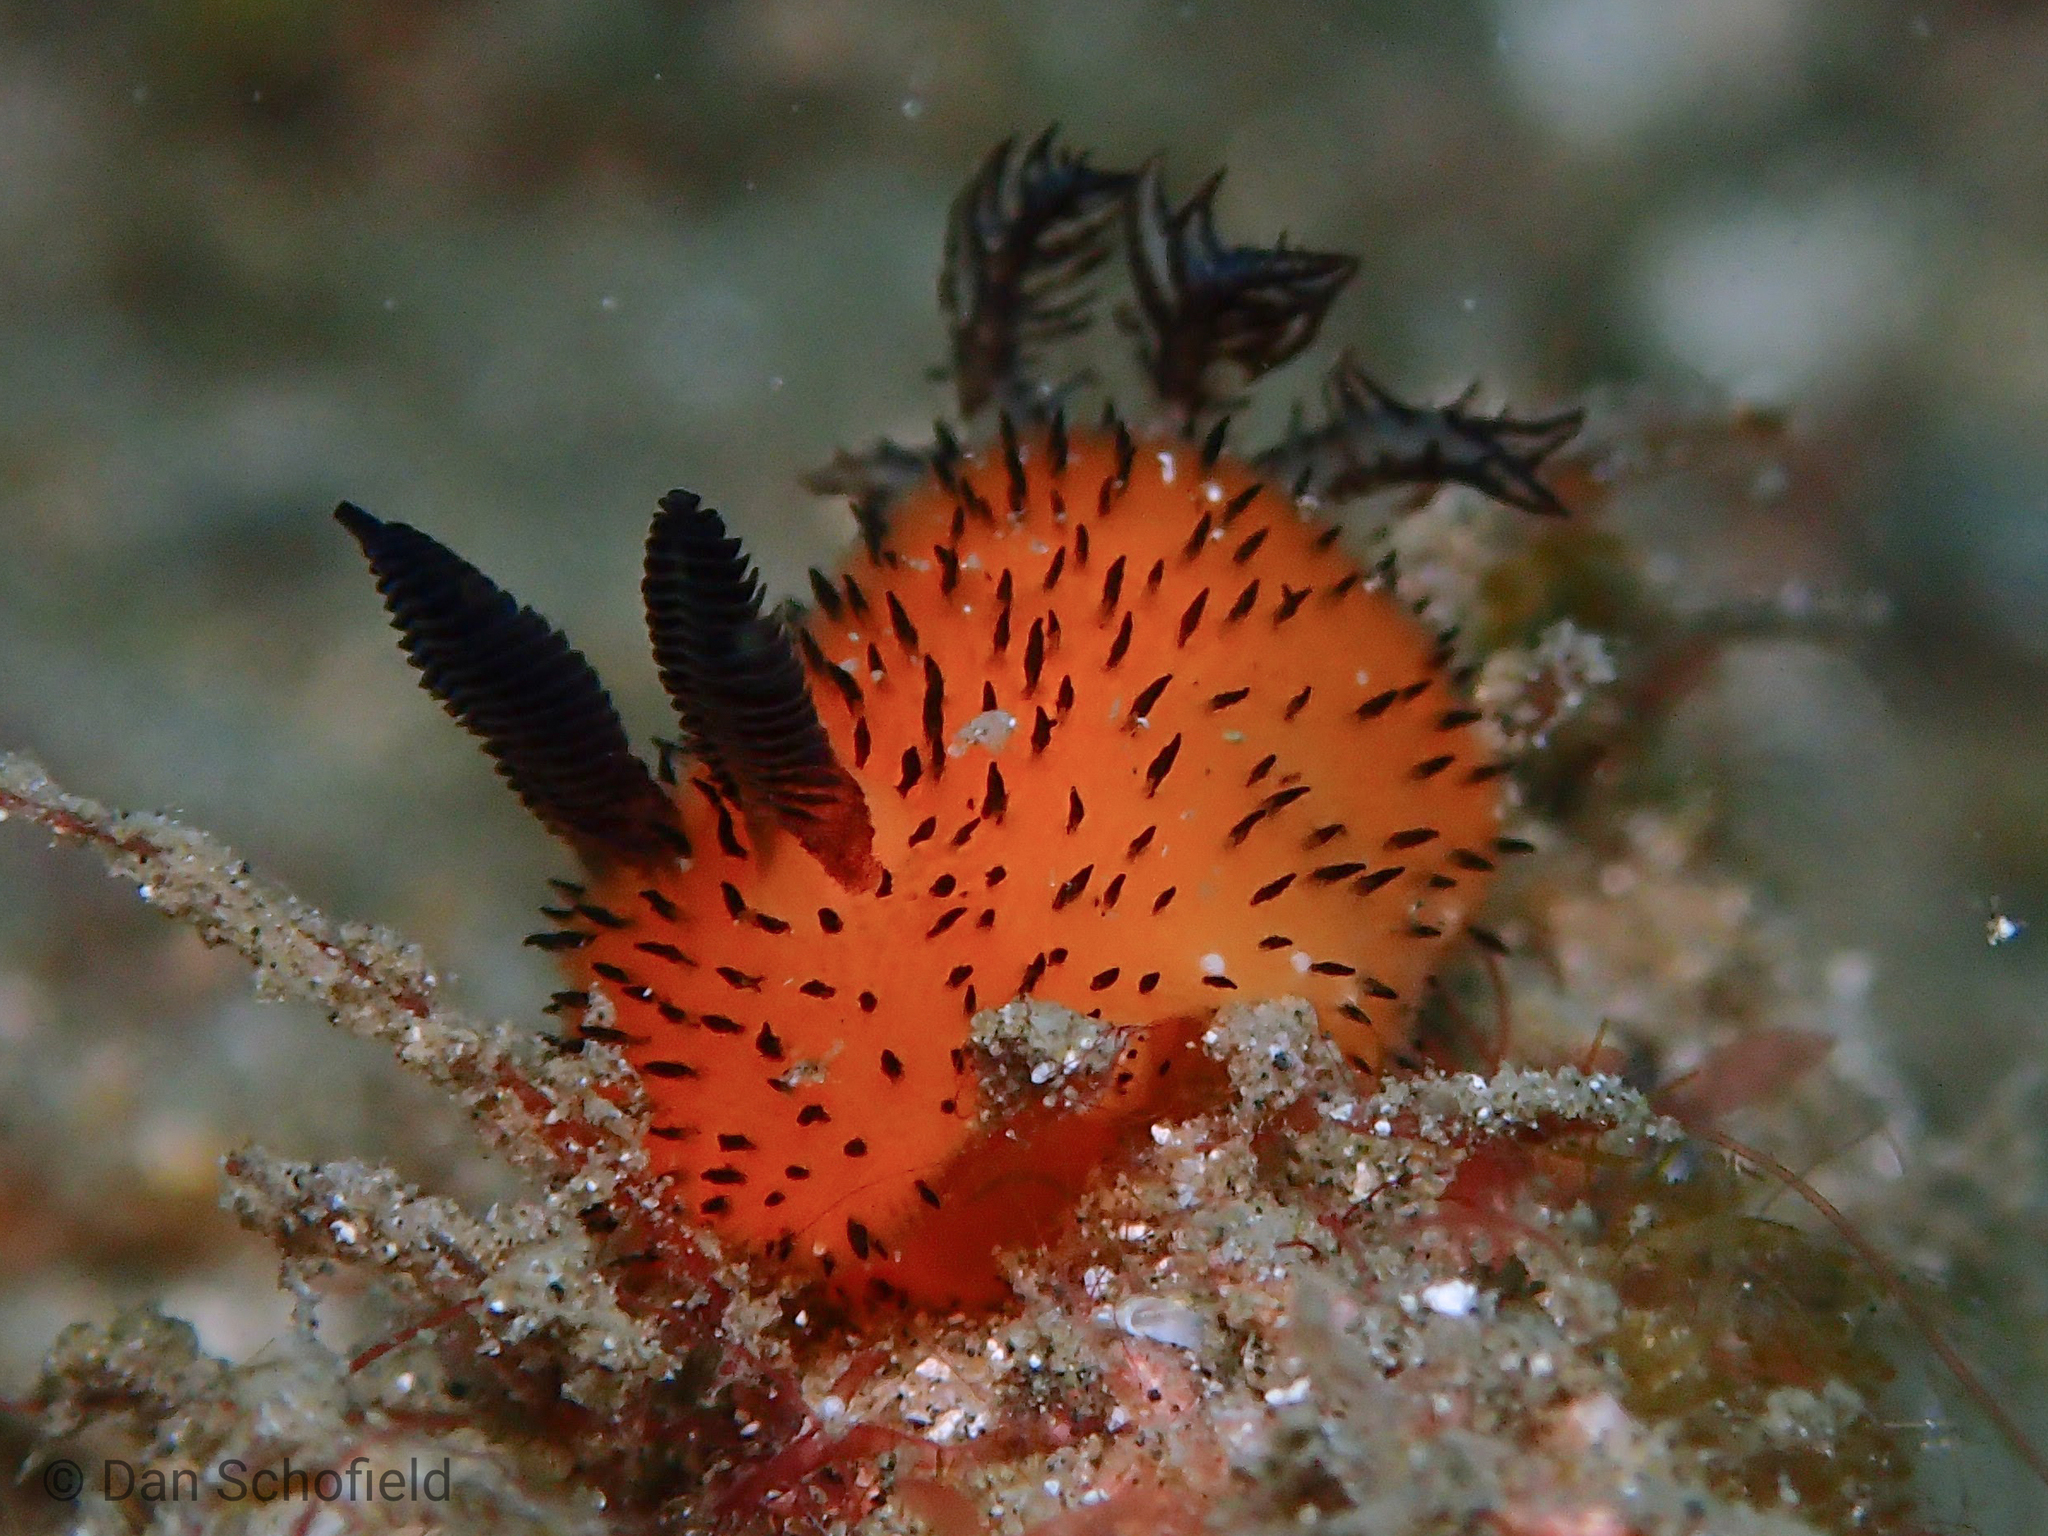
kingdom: Animalia
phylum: Mollusca
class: Gastropoda
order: Nudibranchia
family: Discodorididae
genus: Jorunna
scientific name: Jorunna parva
